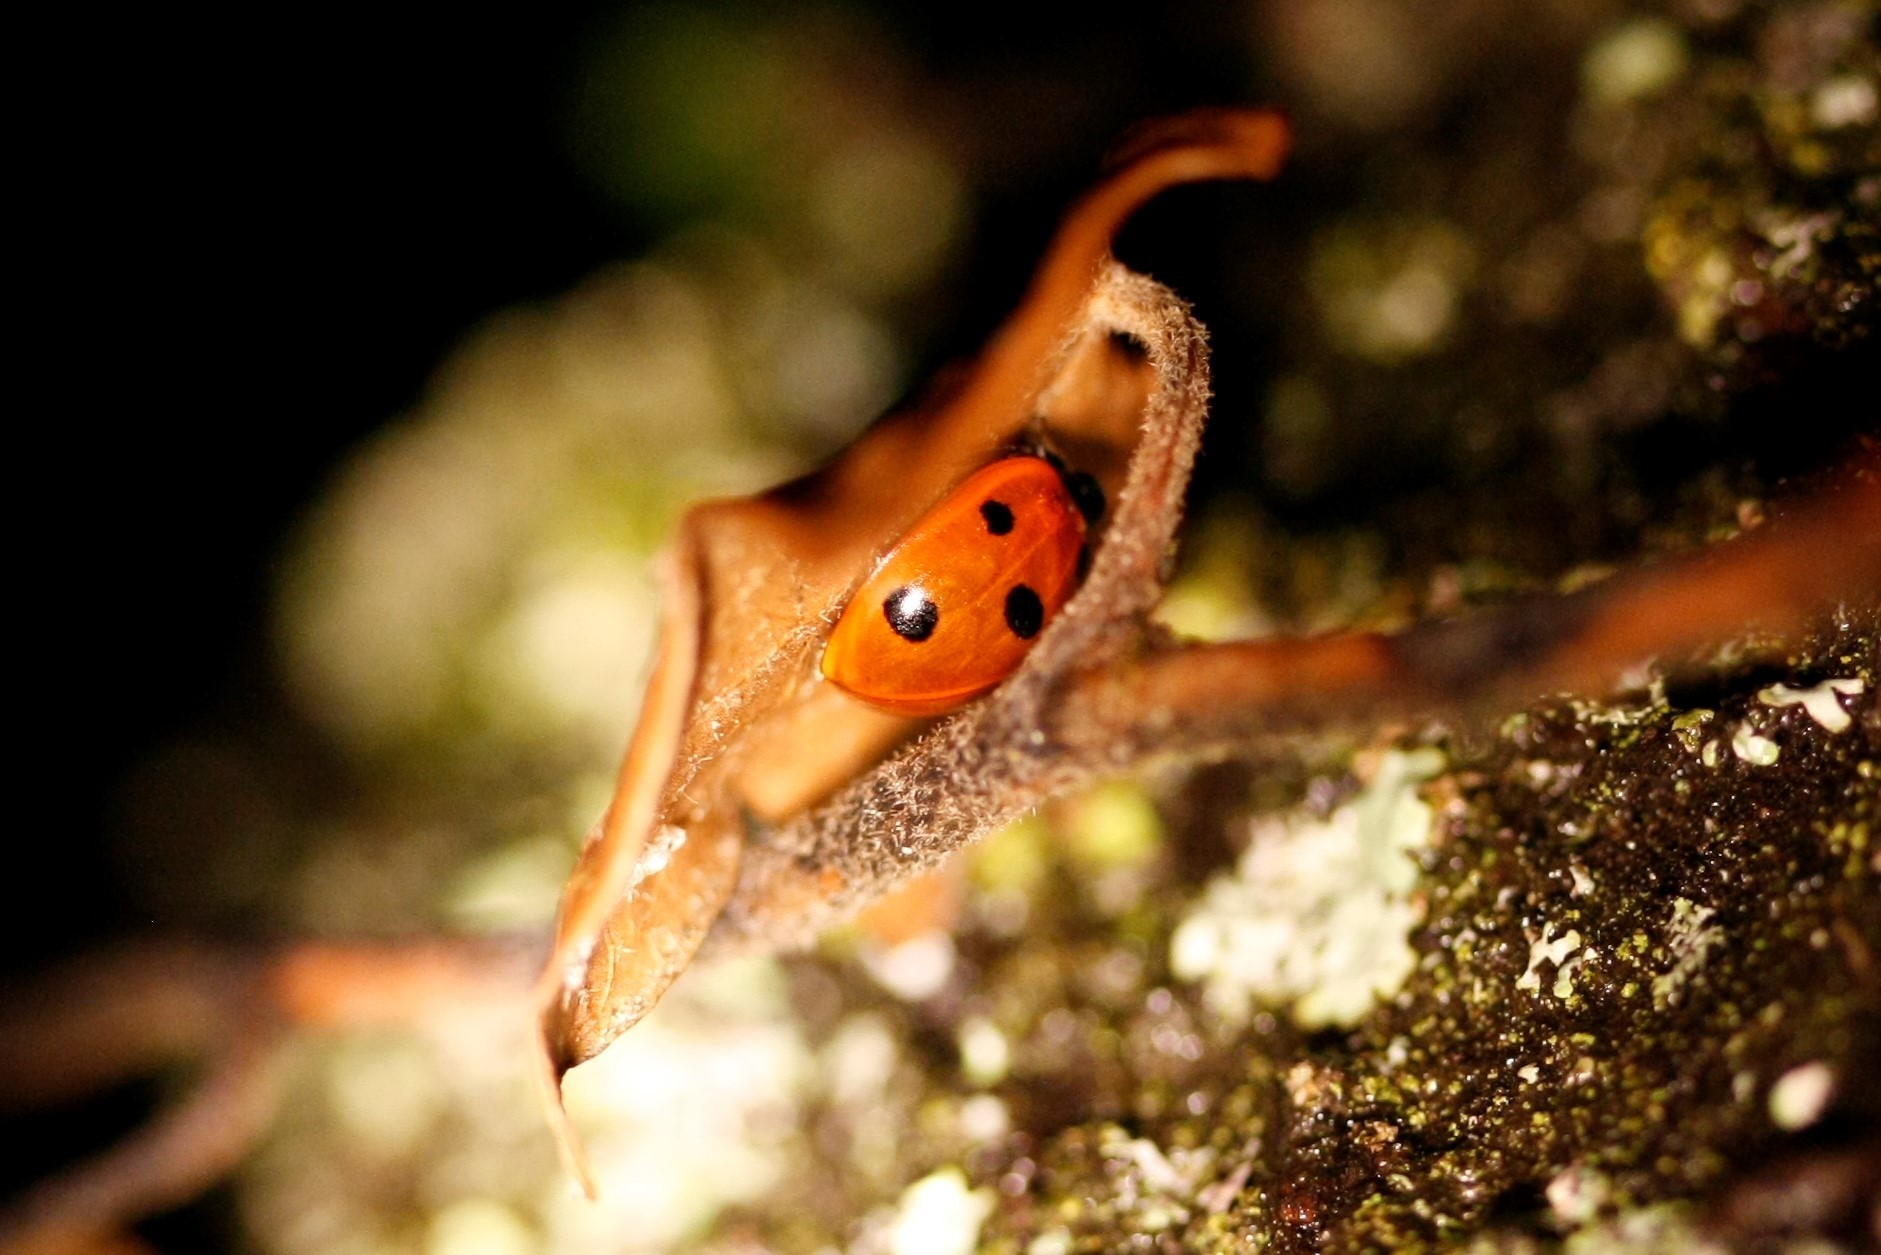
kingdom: Animalia
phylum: Arthropoda
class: Insecta
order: Coleoptera
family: Coccinellidae
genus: Coccinella
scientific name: Coccinella septempunctata
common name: Sevenspotted lady beetle
